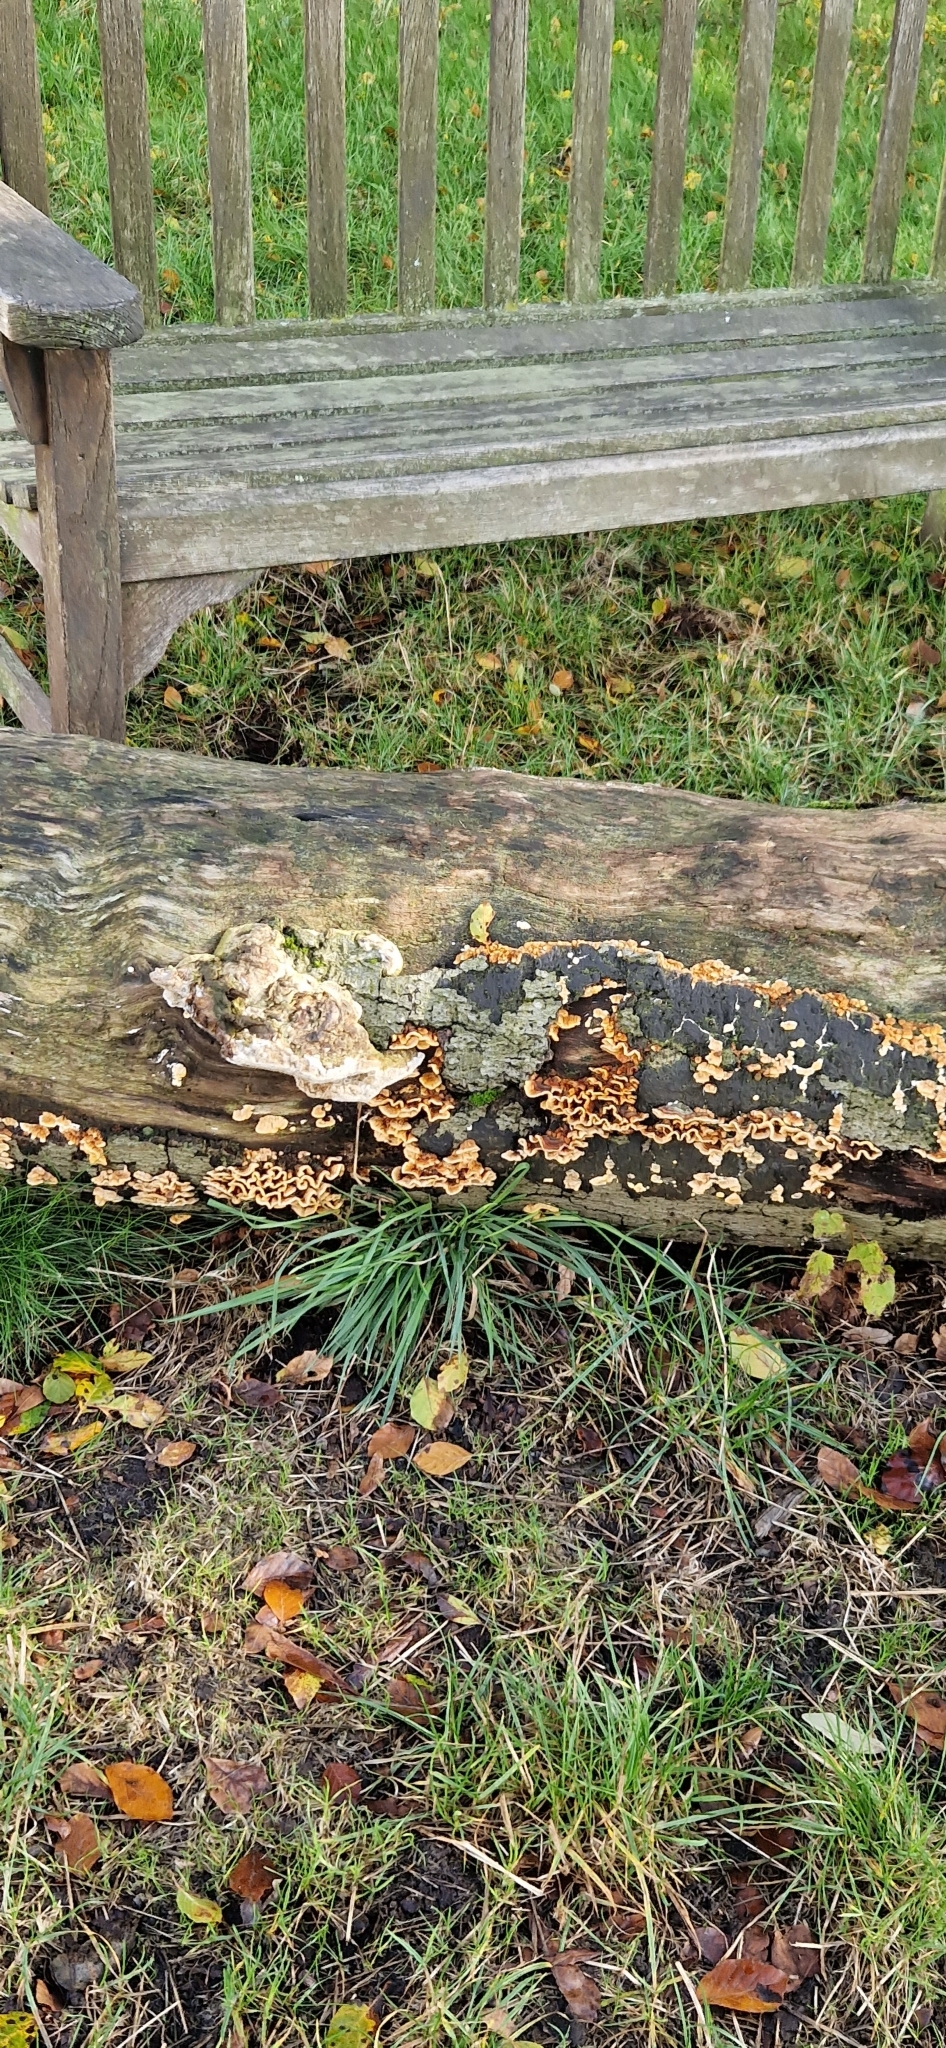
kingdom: Fungi
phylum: Basidiomycota
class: Agaricomycetes
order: Russulales
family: Stereaceae
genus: Stereum
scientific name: Stereum hirsutum
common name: Hairy curtain crust
